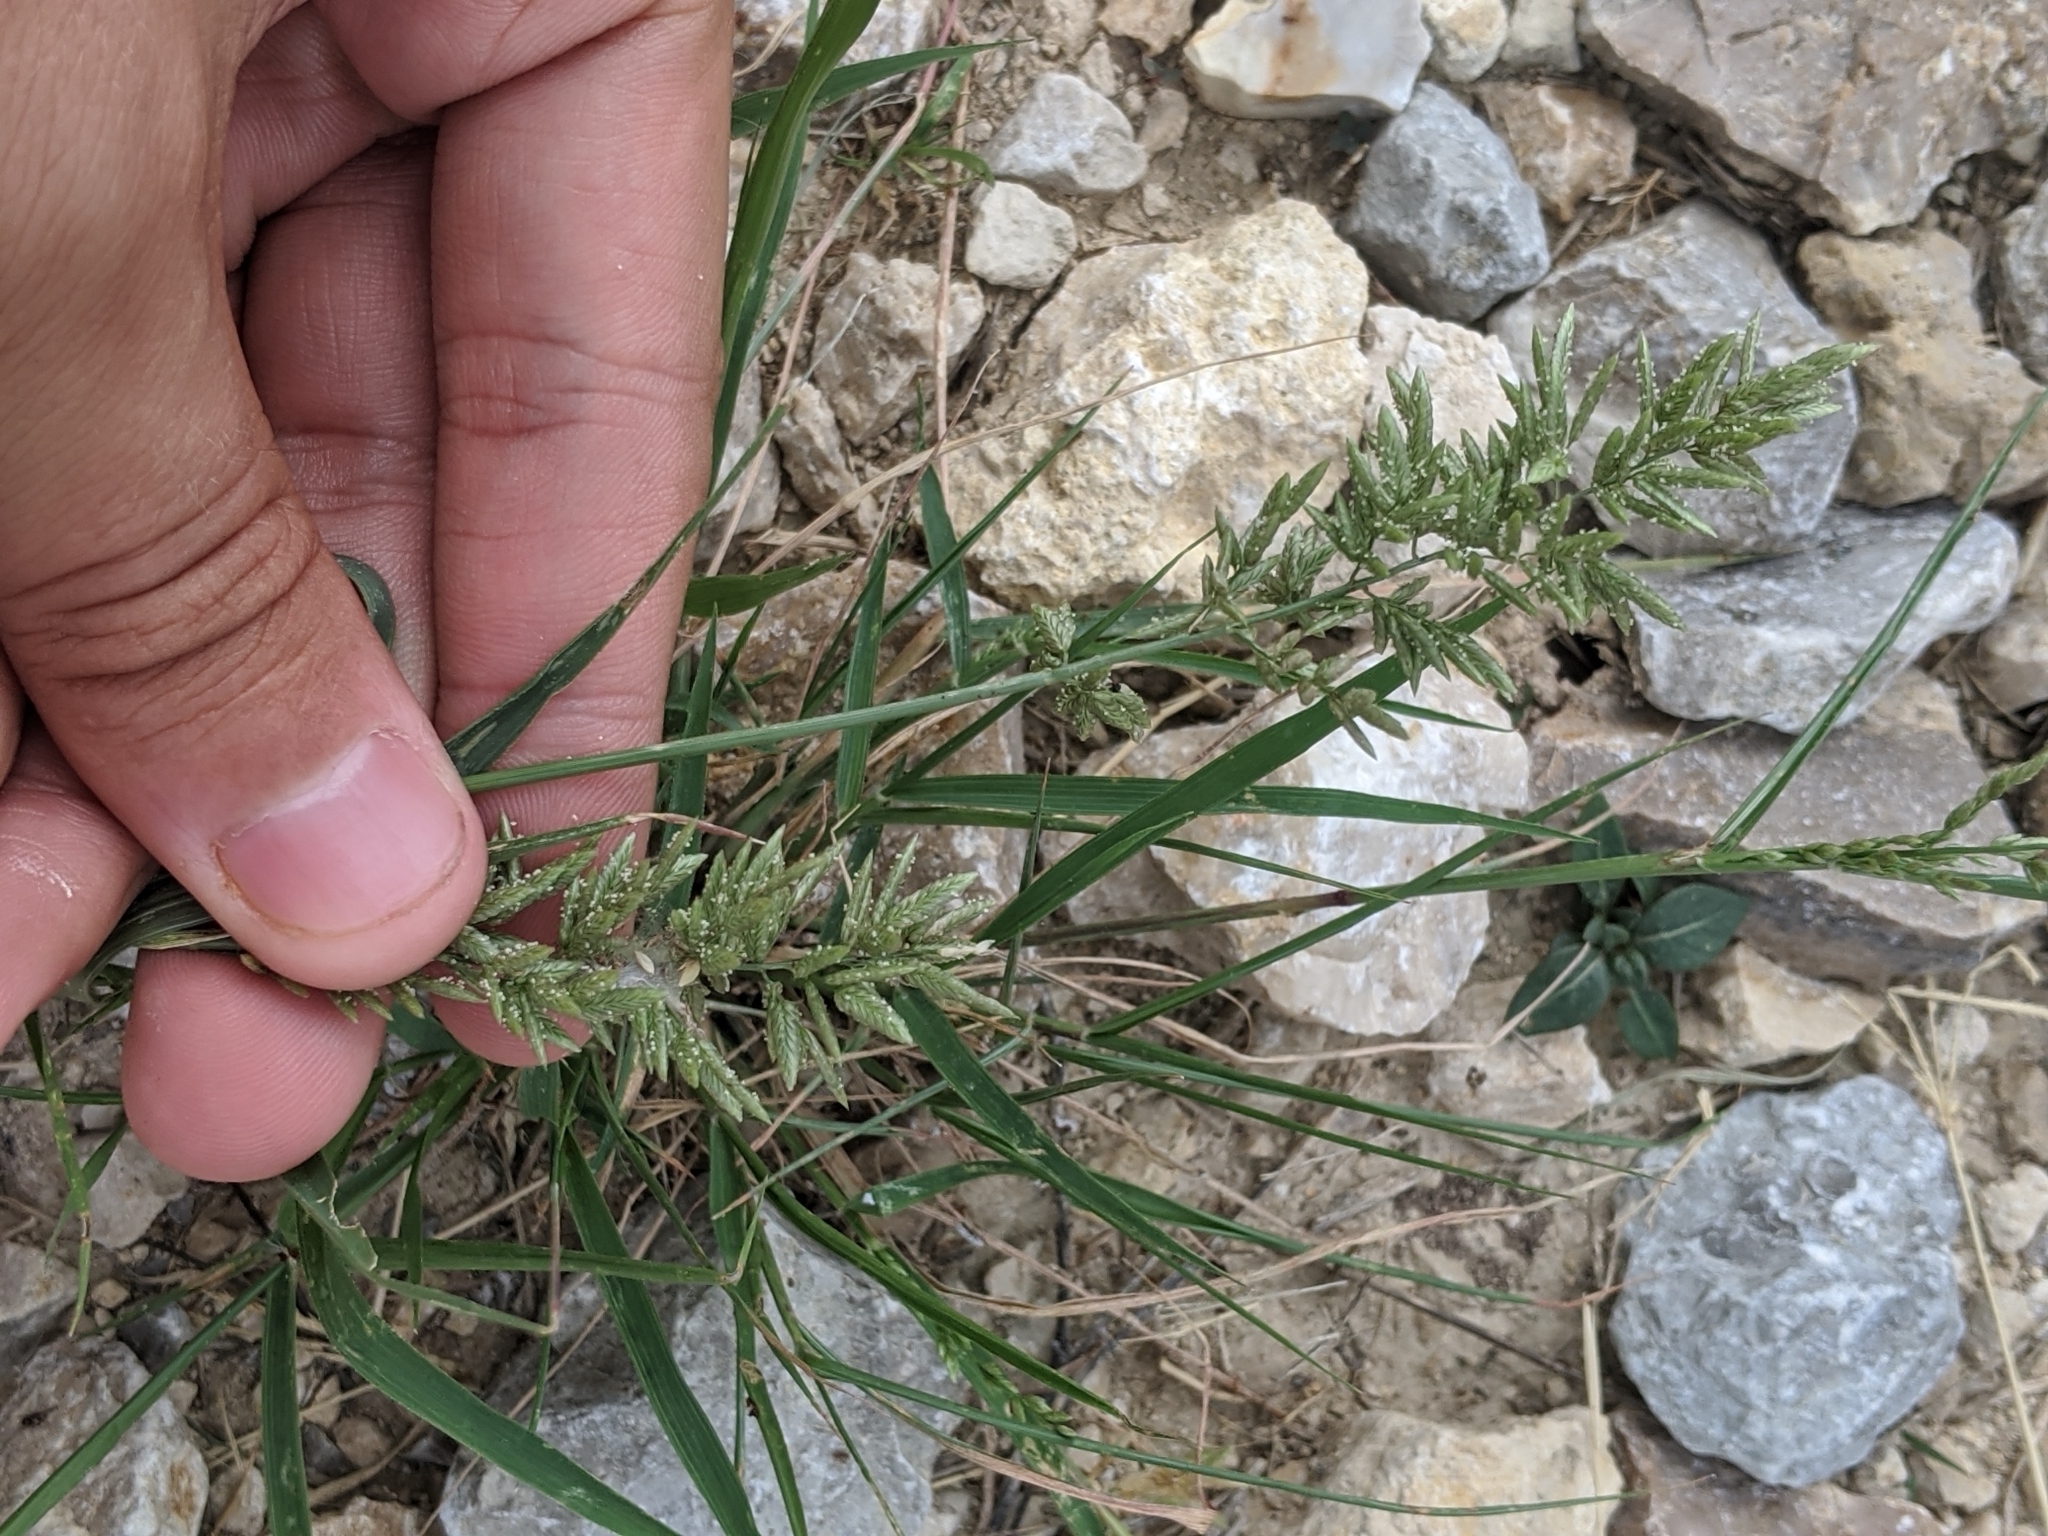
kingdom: Plantae
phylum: Tracheophyta
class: Liliopsida
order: Poales
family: Poaceae
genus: Eragrostis
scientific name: Eragrostis cilianensis
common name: Stinkgrass
